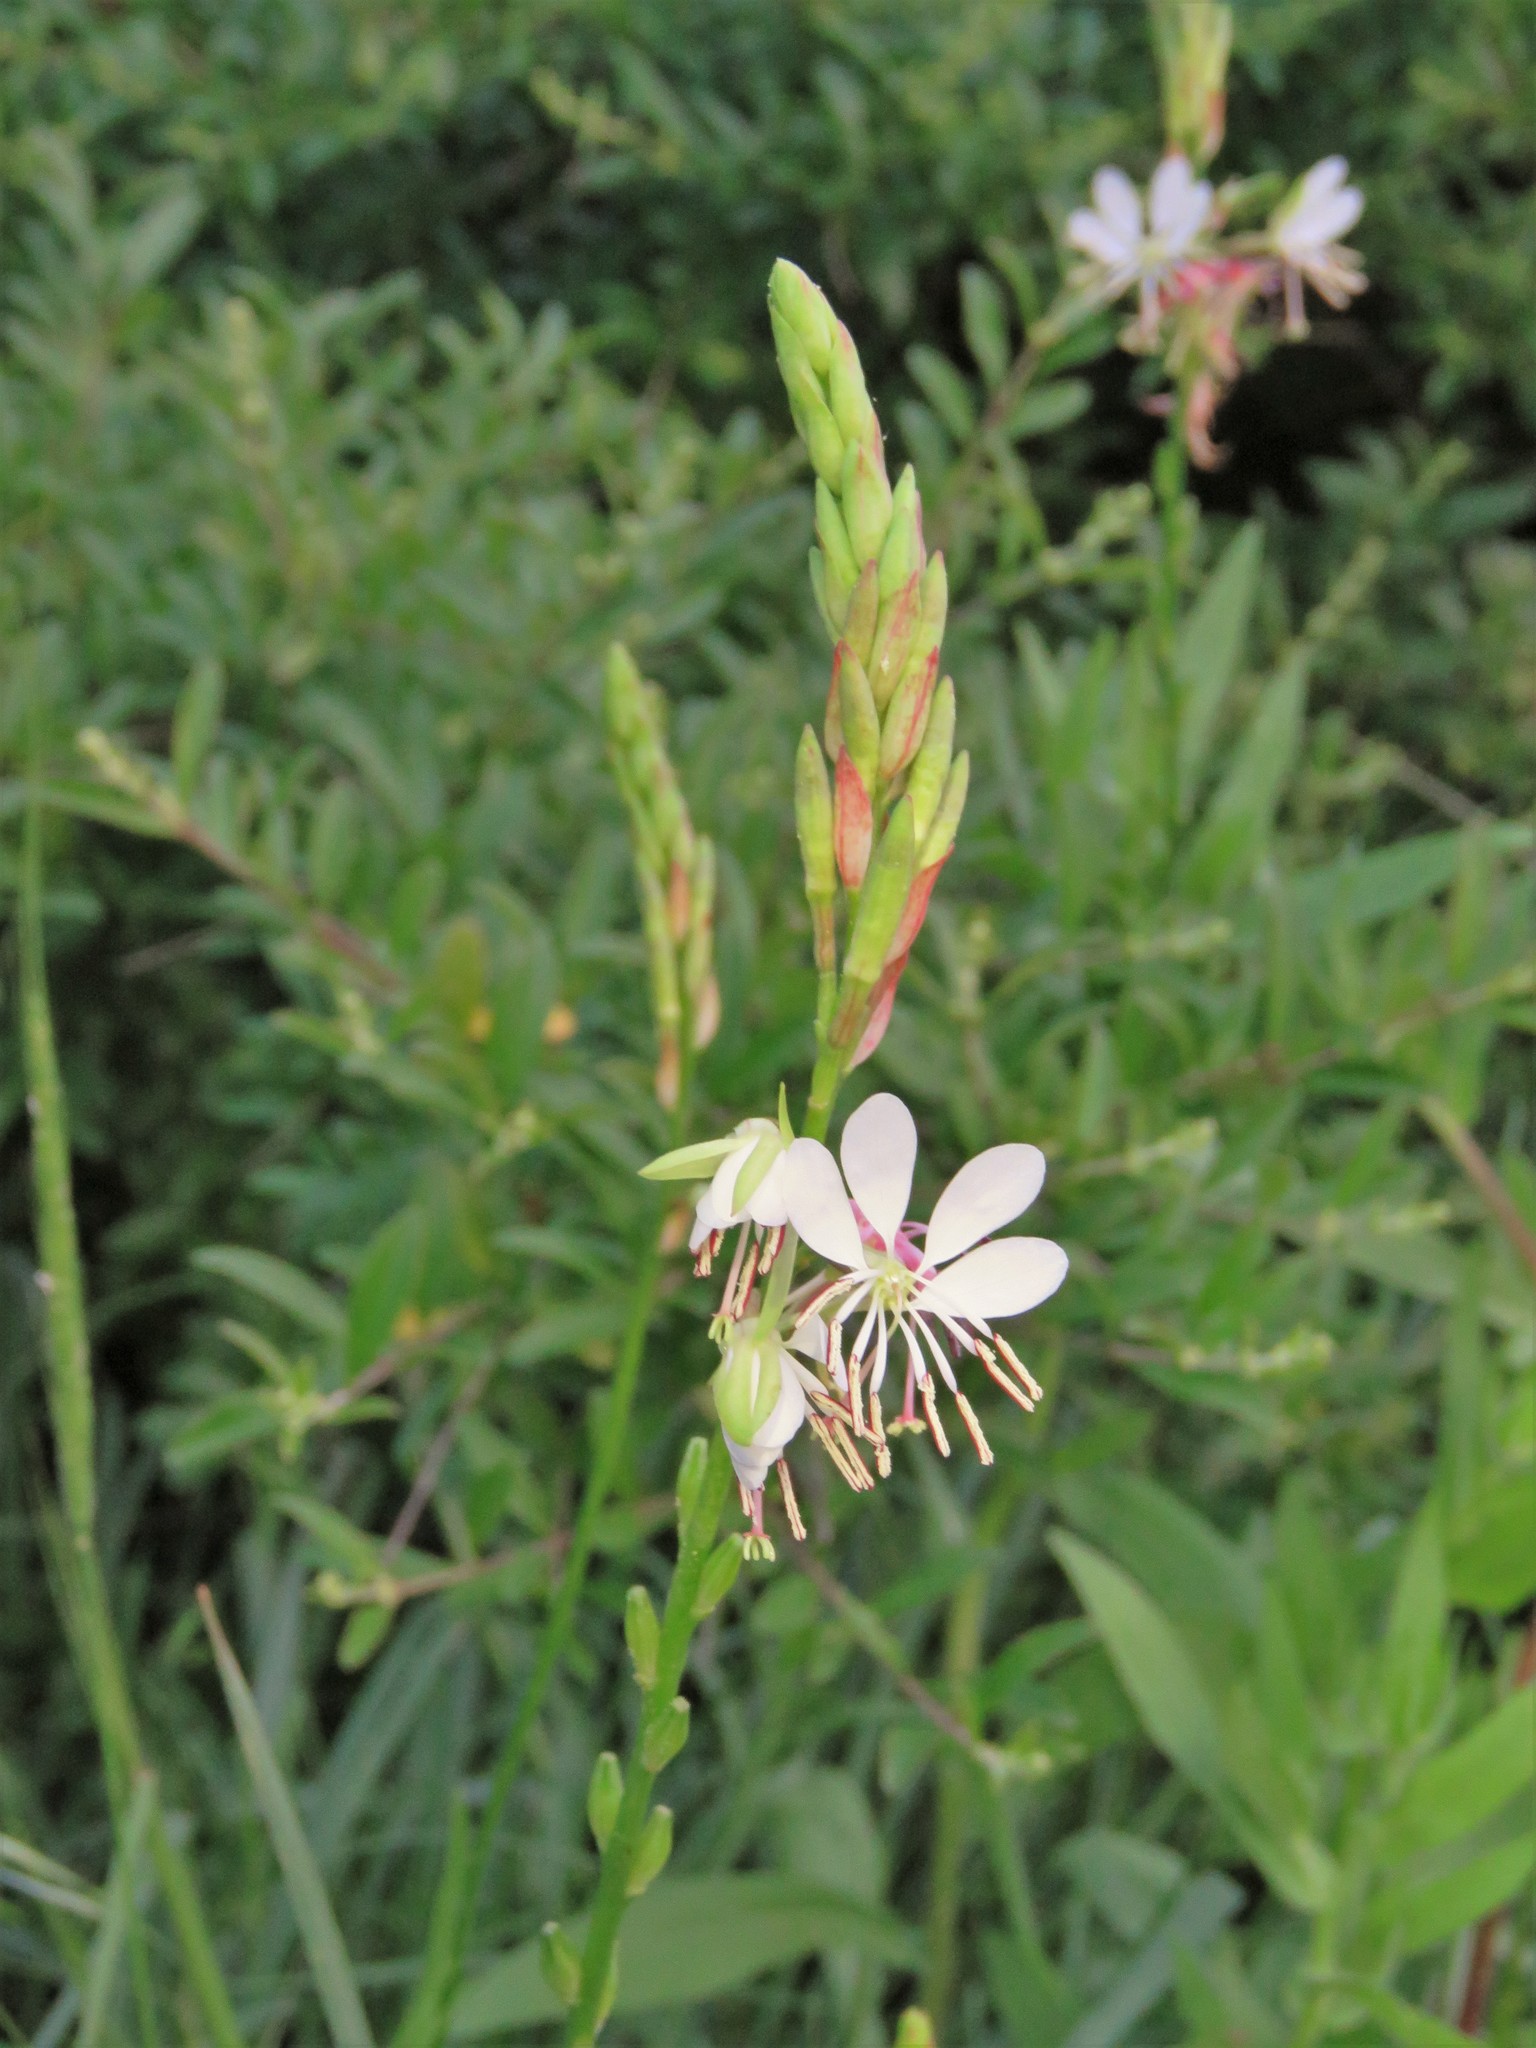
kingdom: Plantae
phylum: Tracheophyta
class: Magnoliopsida
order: Myrtales
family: Onagraceae
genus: Oenothera
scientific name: Oenothera suffulta
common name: Kisses
